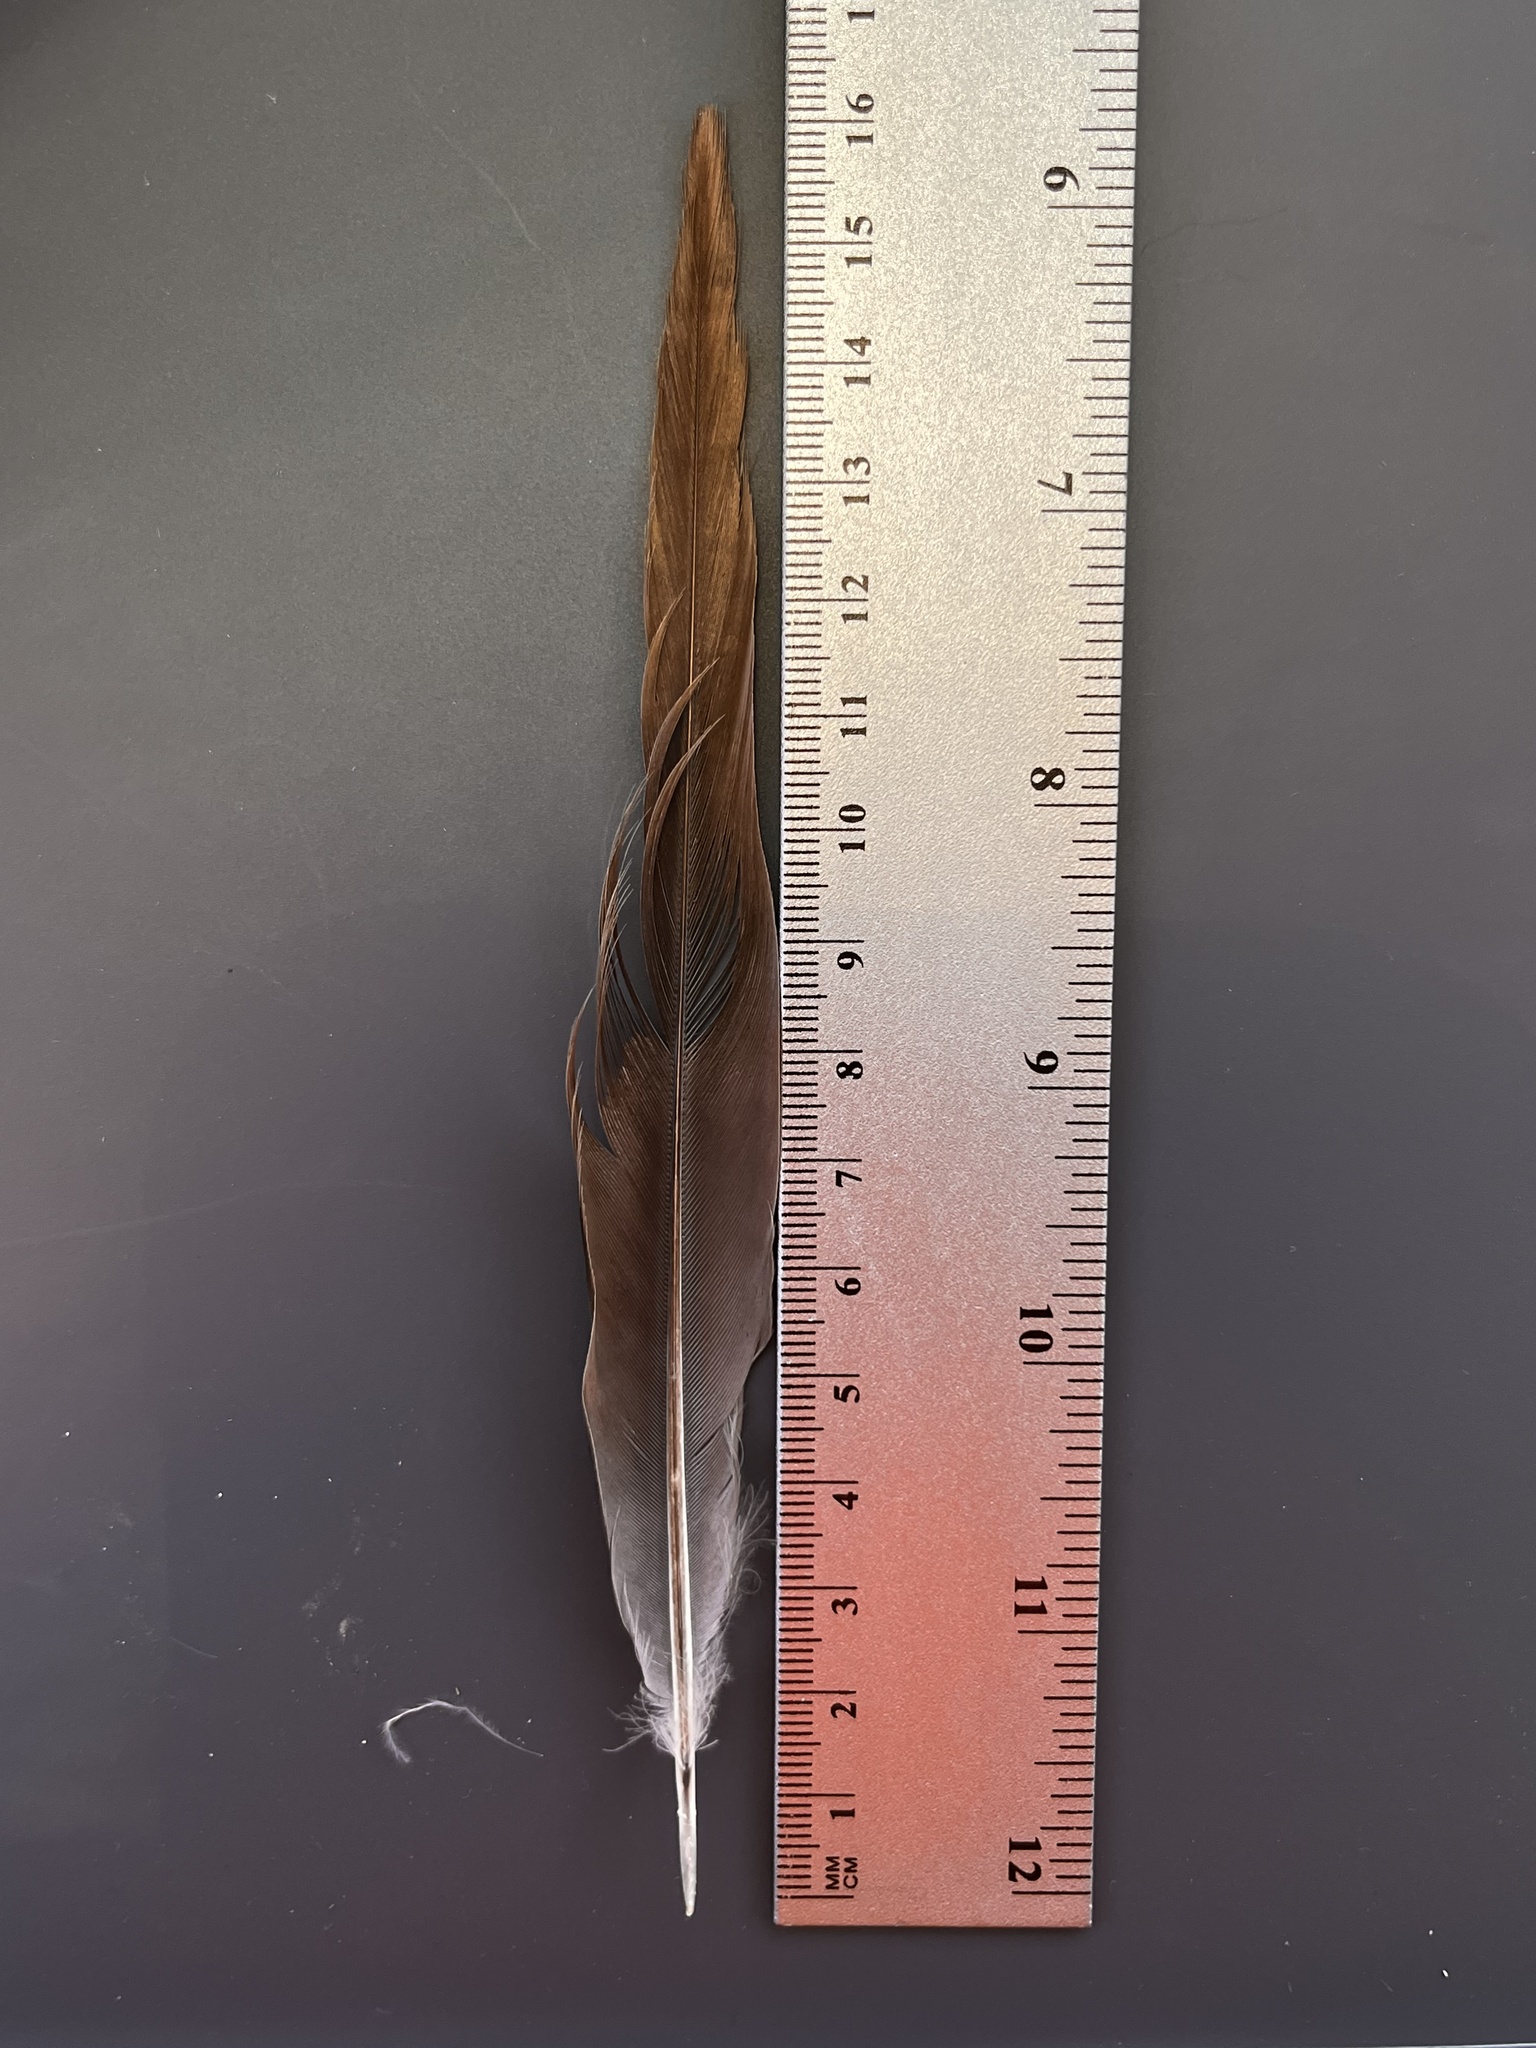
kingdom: Animalia
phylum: Chordata
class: Aves
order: Columbiformes
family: Columbidae
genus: Zenaida
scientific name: Zenaida macroura
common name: Mourning dove
